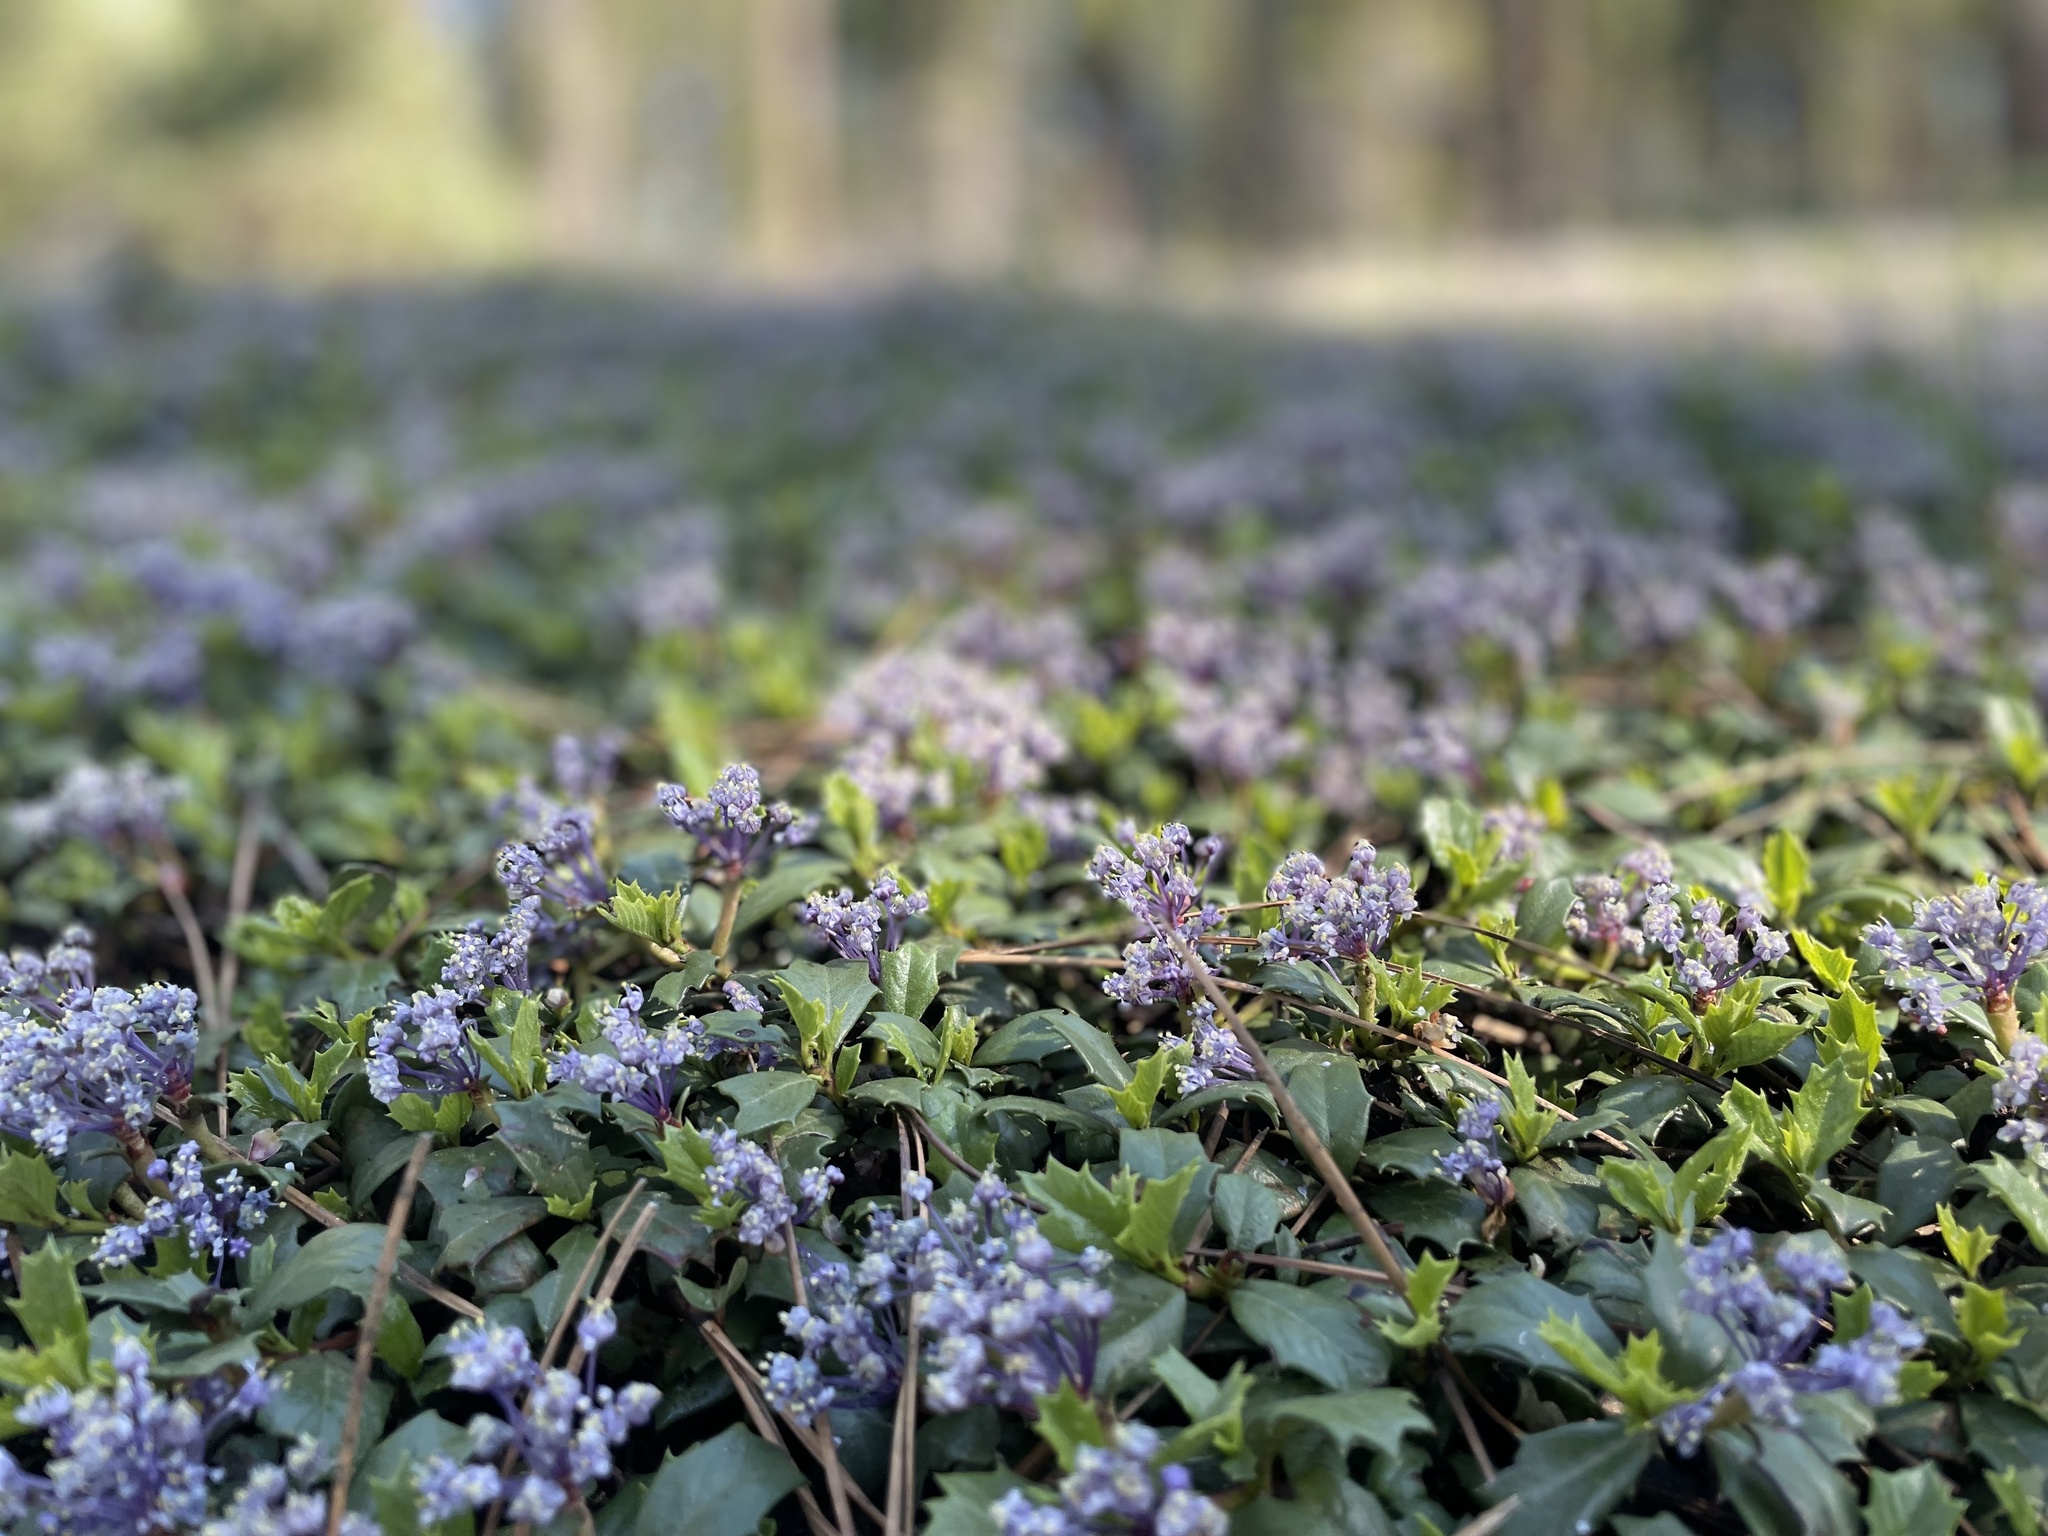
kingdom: Plantae
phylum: Tracheophyta
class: Magnoliopsida
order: Rosales
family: Rhamnaceae
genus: Ceanothus
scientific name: Ceanothus prostratus
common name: Mahala-mat
